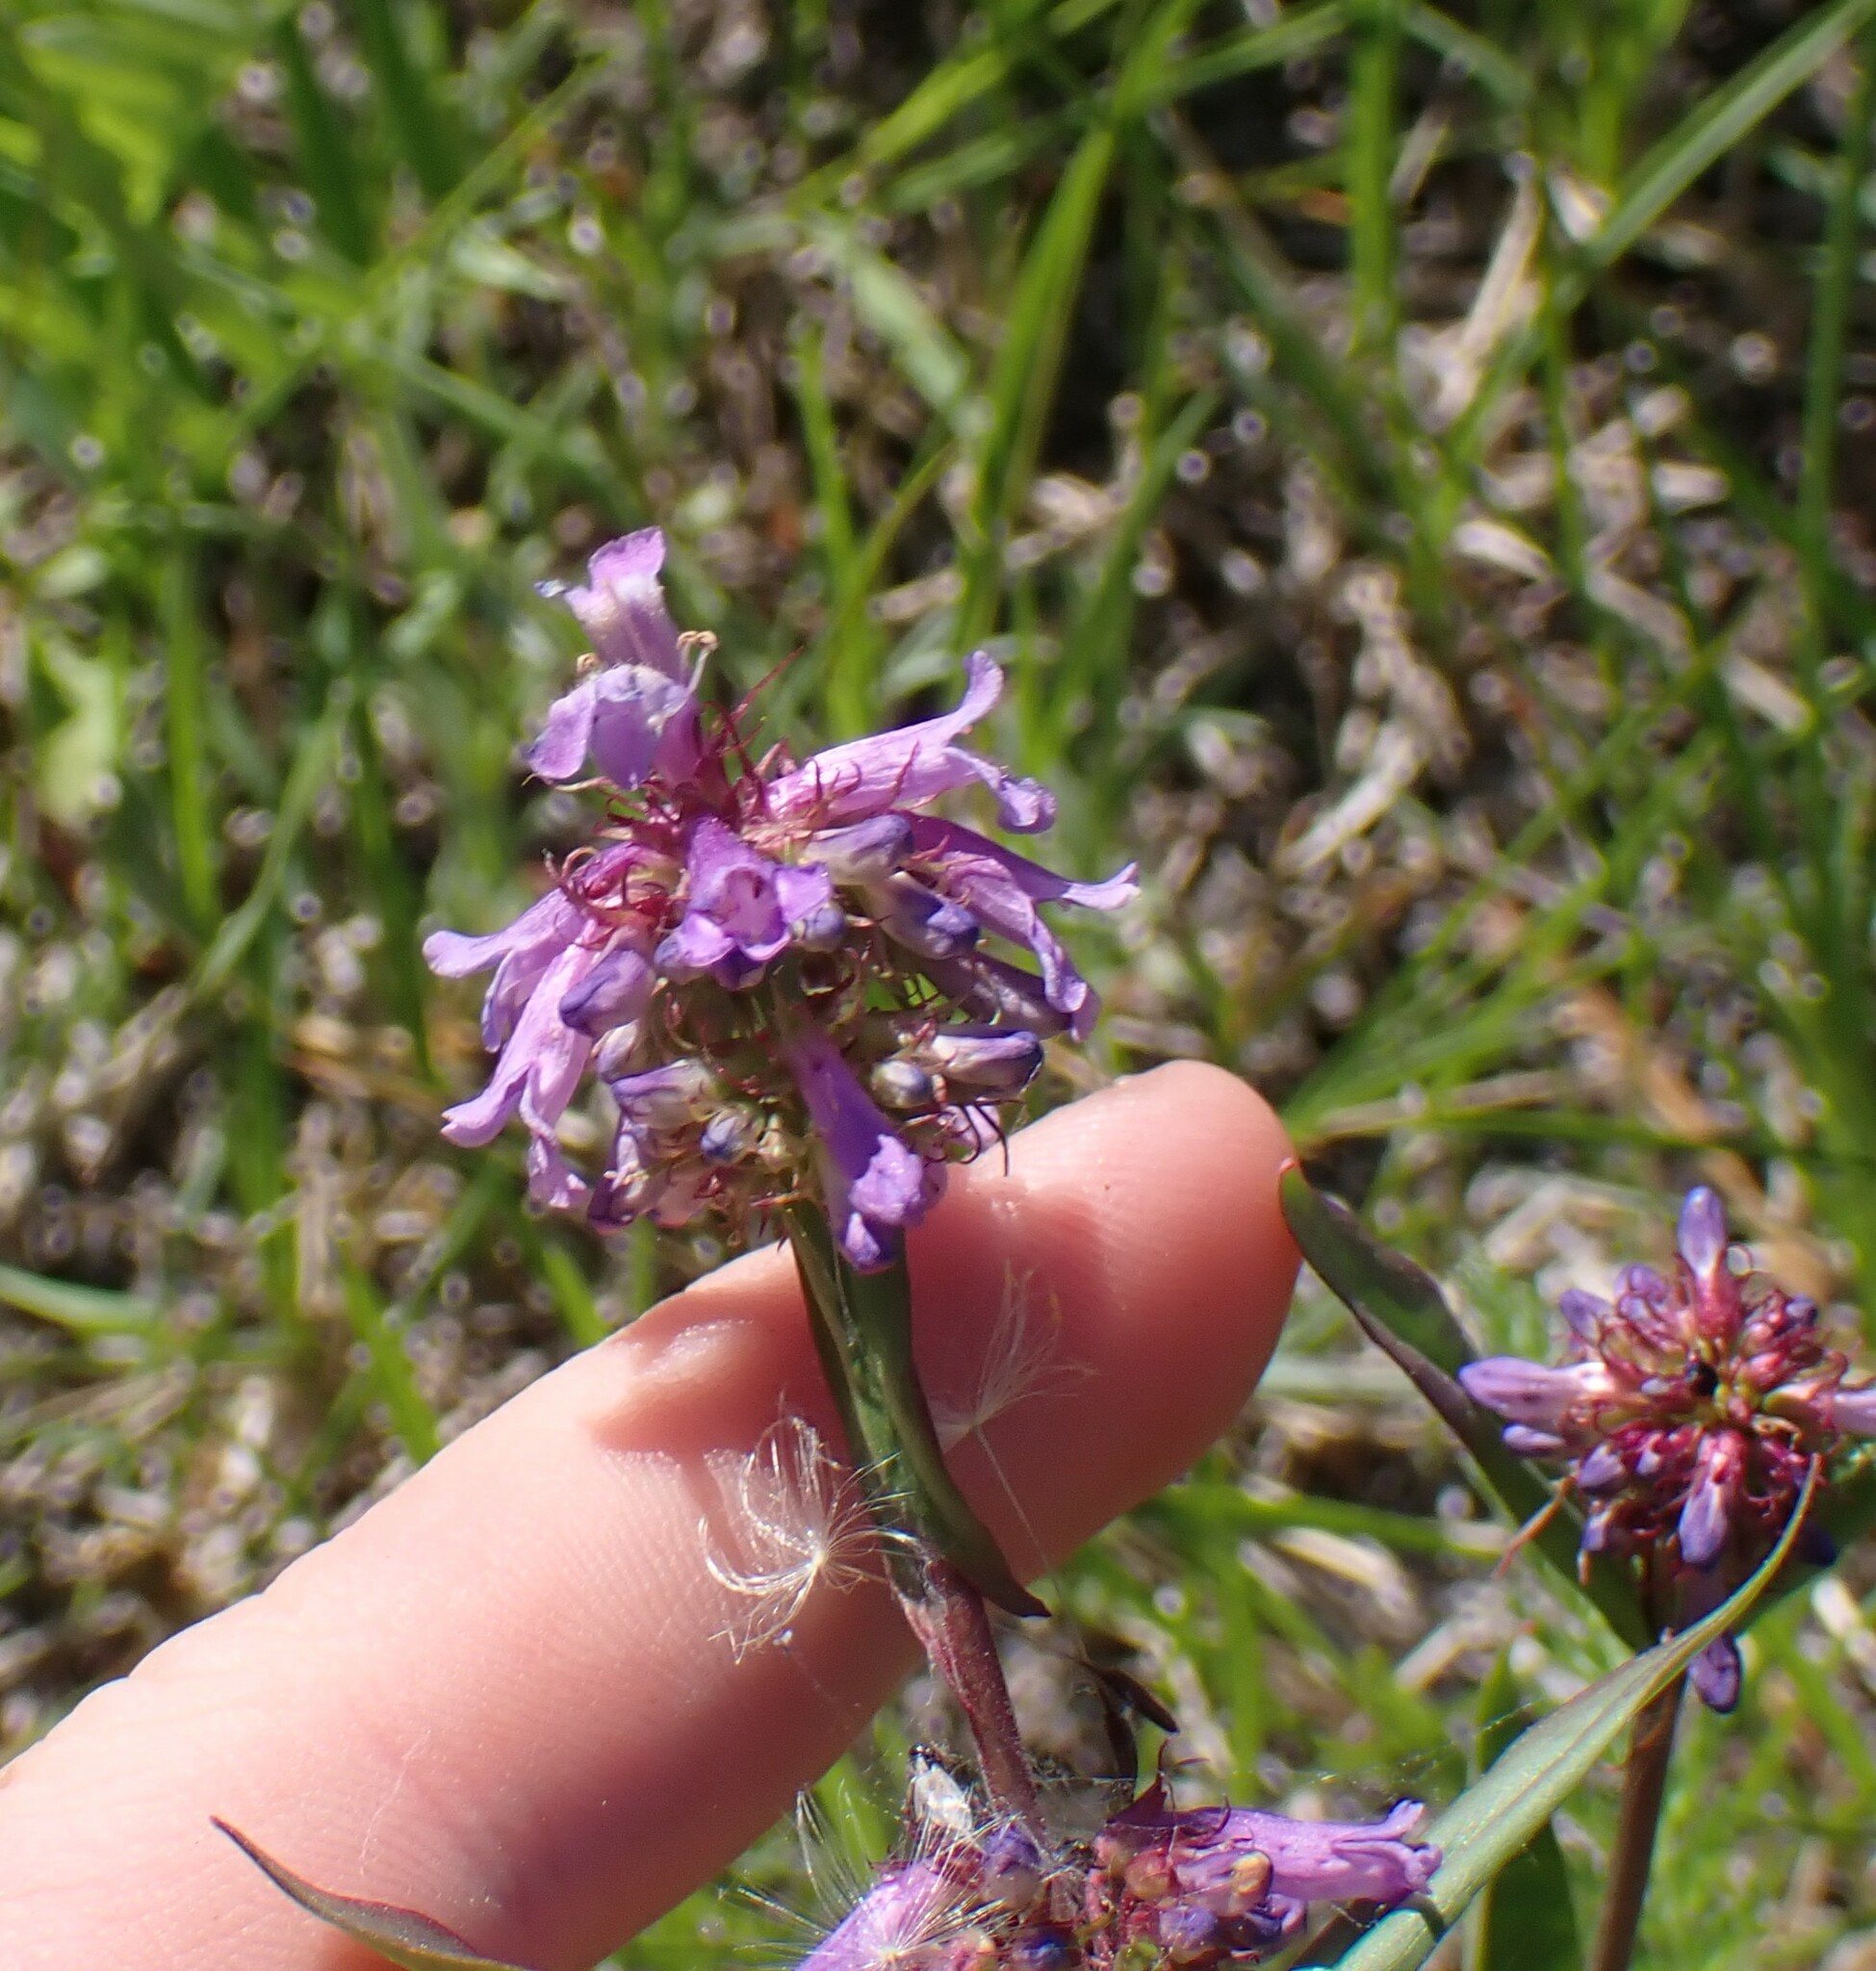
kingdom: Plantae
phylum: Tracheophyta
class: Magnoliopsida
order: Lamiales
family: Plantaginaceae
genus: Penstemon
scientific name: Penstemon procerus
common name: Small-flower penstemon
